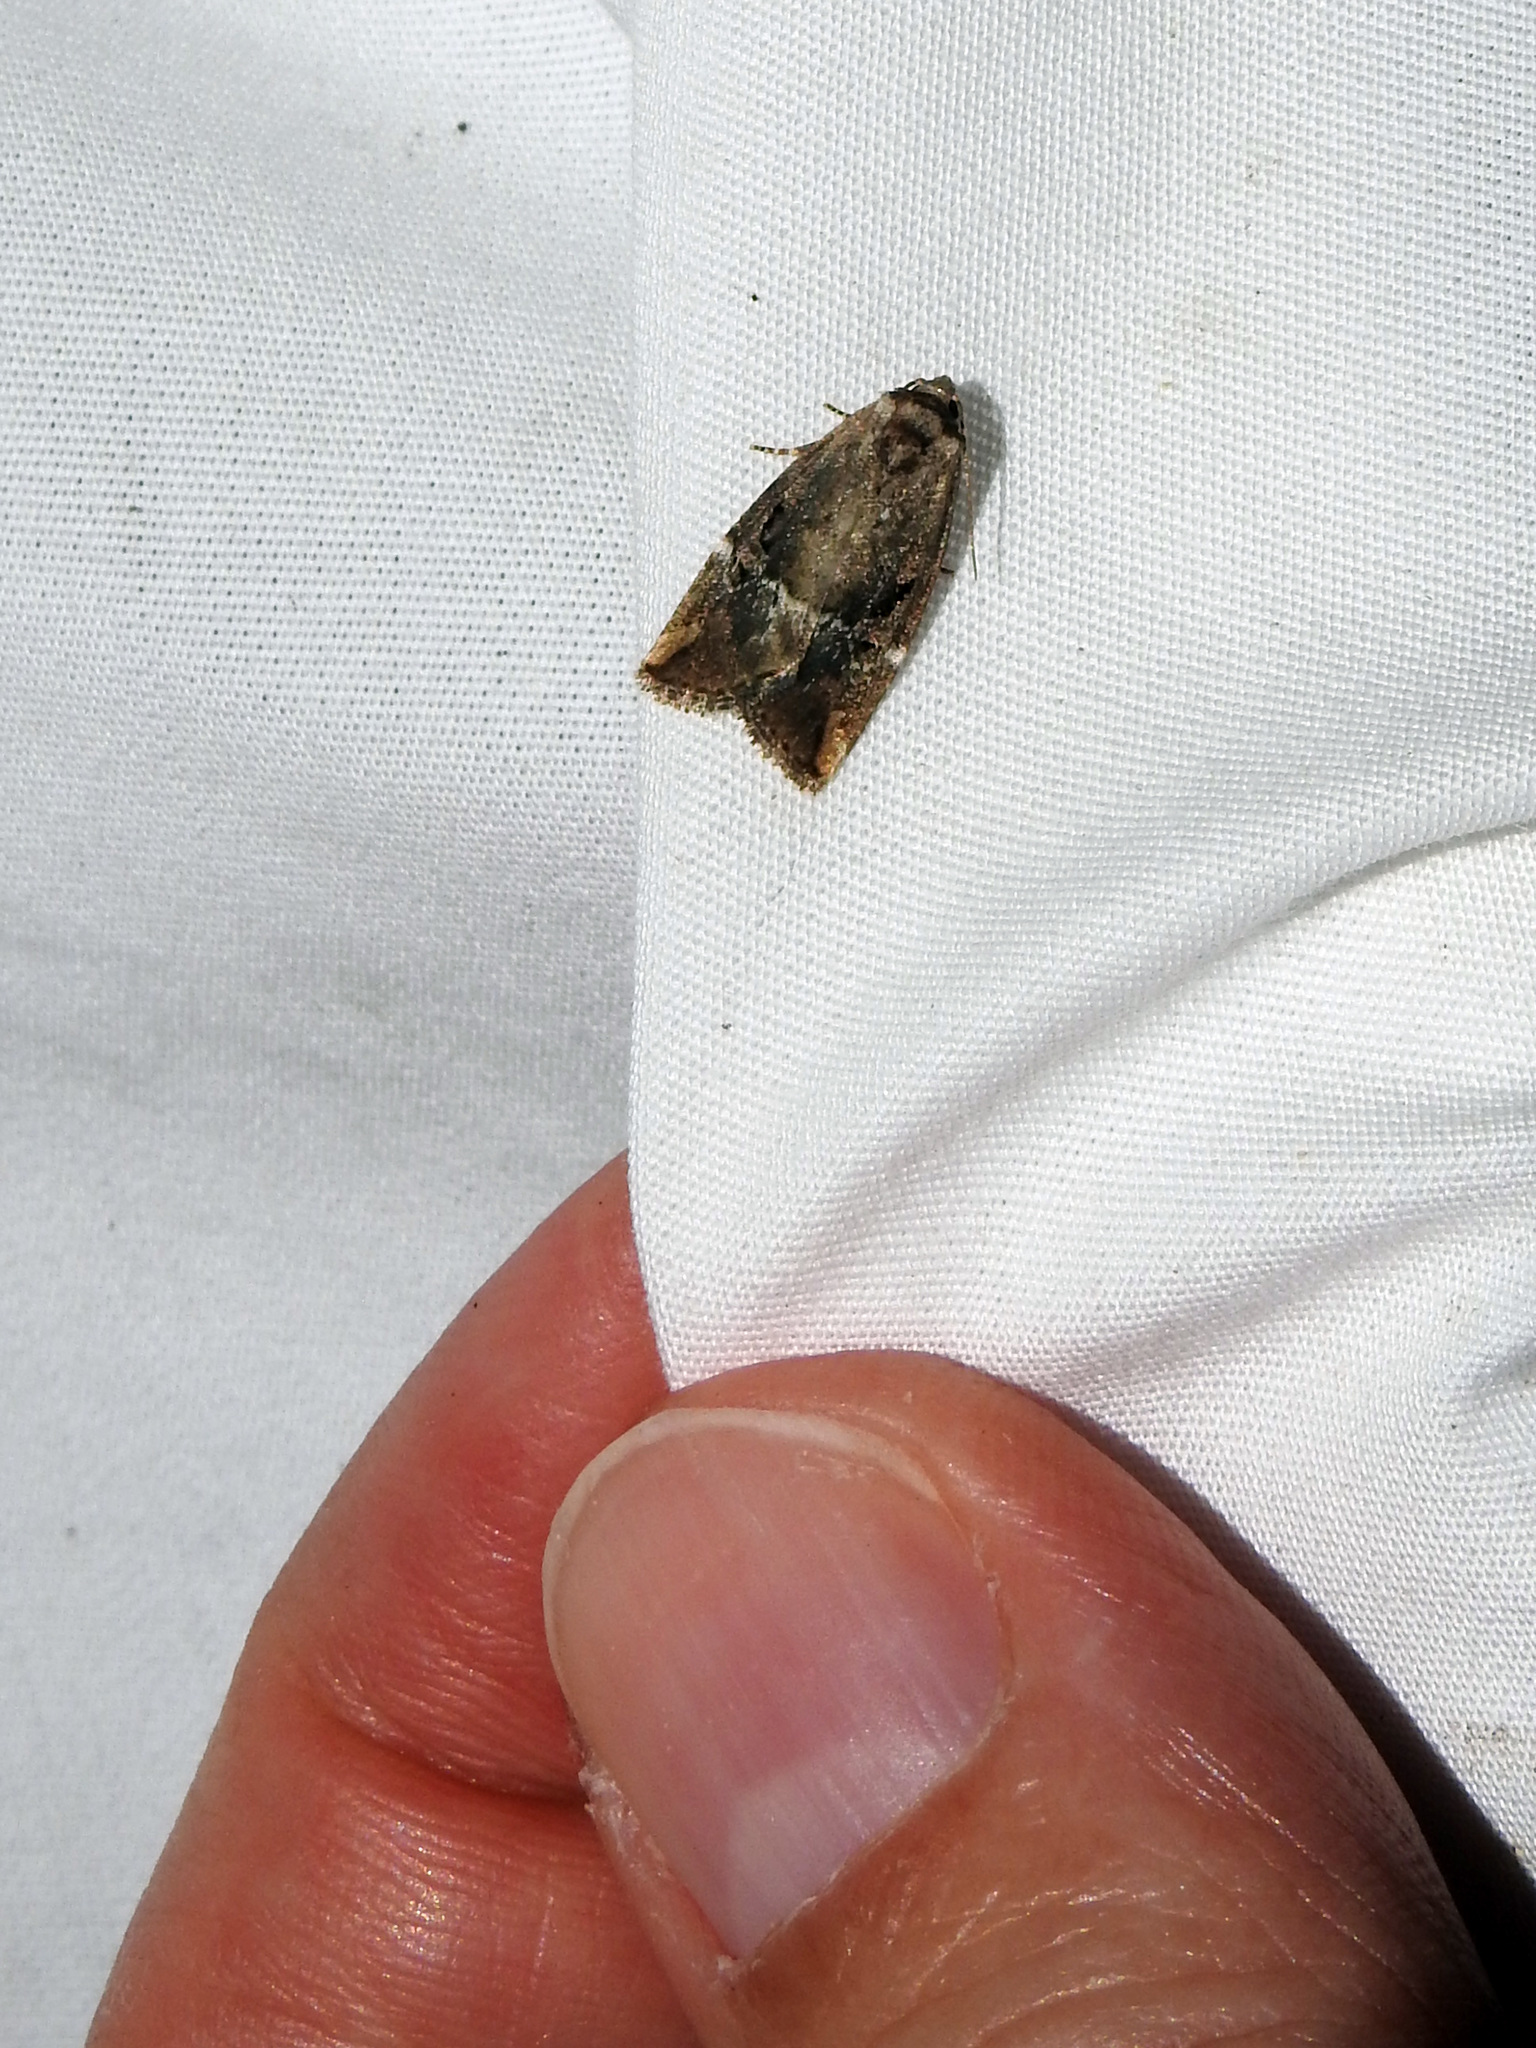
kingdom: Animalia
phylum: Arthropoda
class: Insecta
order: Lepidoptera
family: Noctuidae
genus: Elaphria
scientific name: Elaphria versicolor
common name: Fir harlequin
